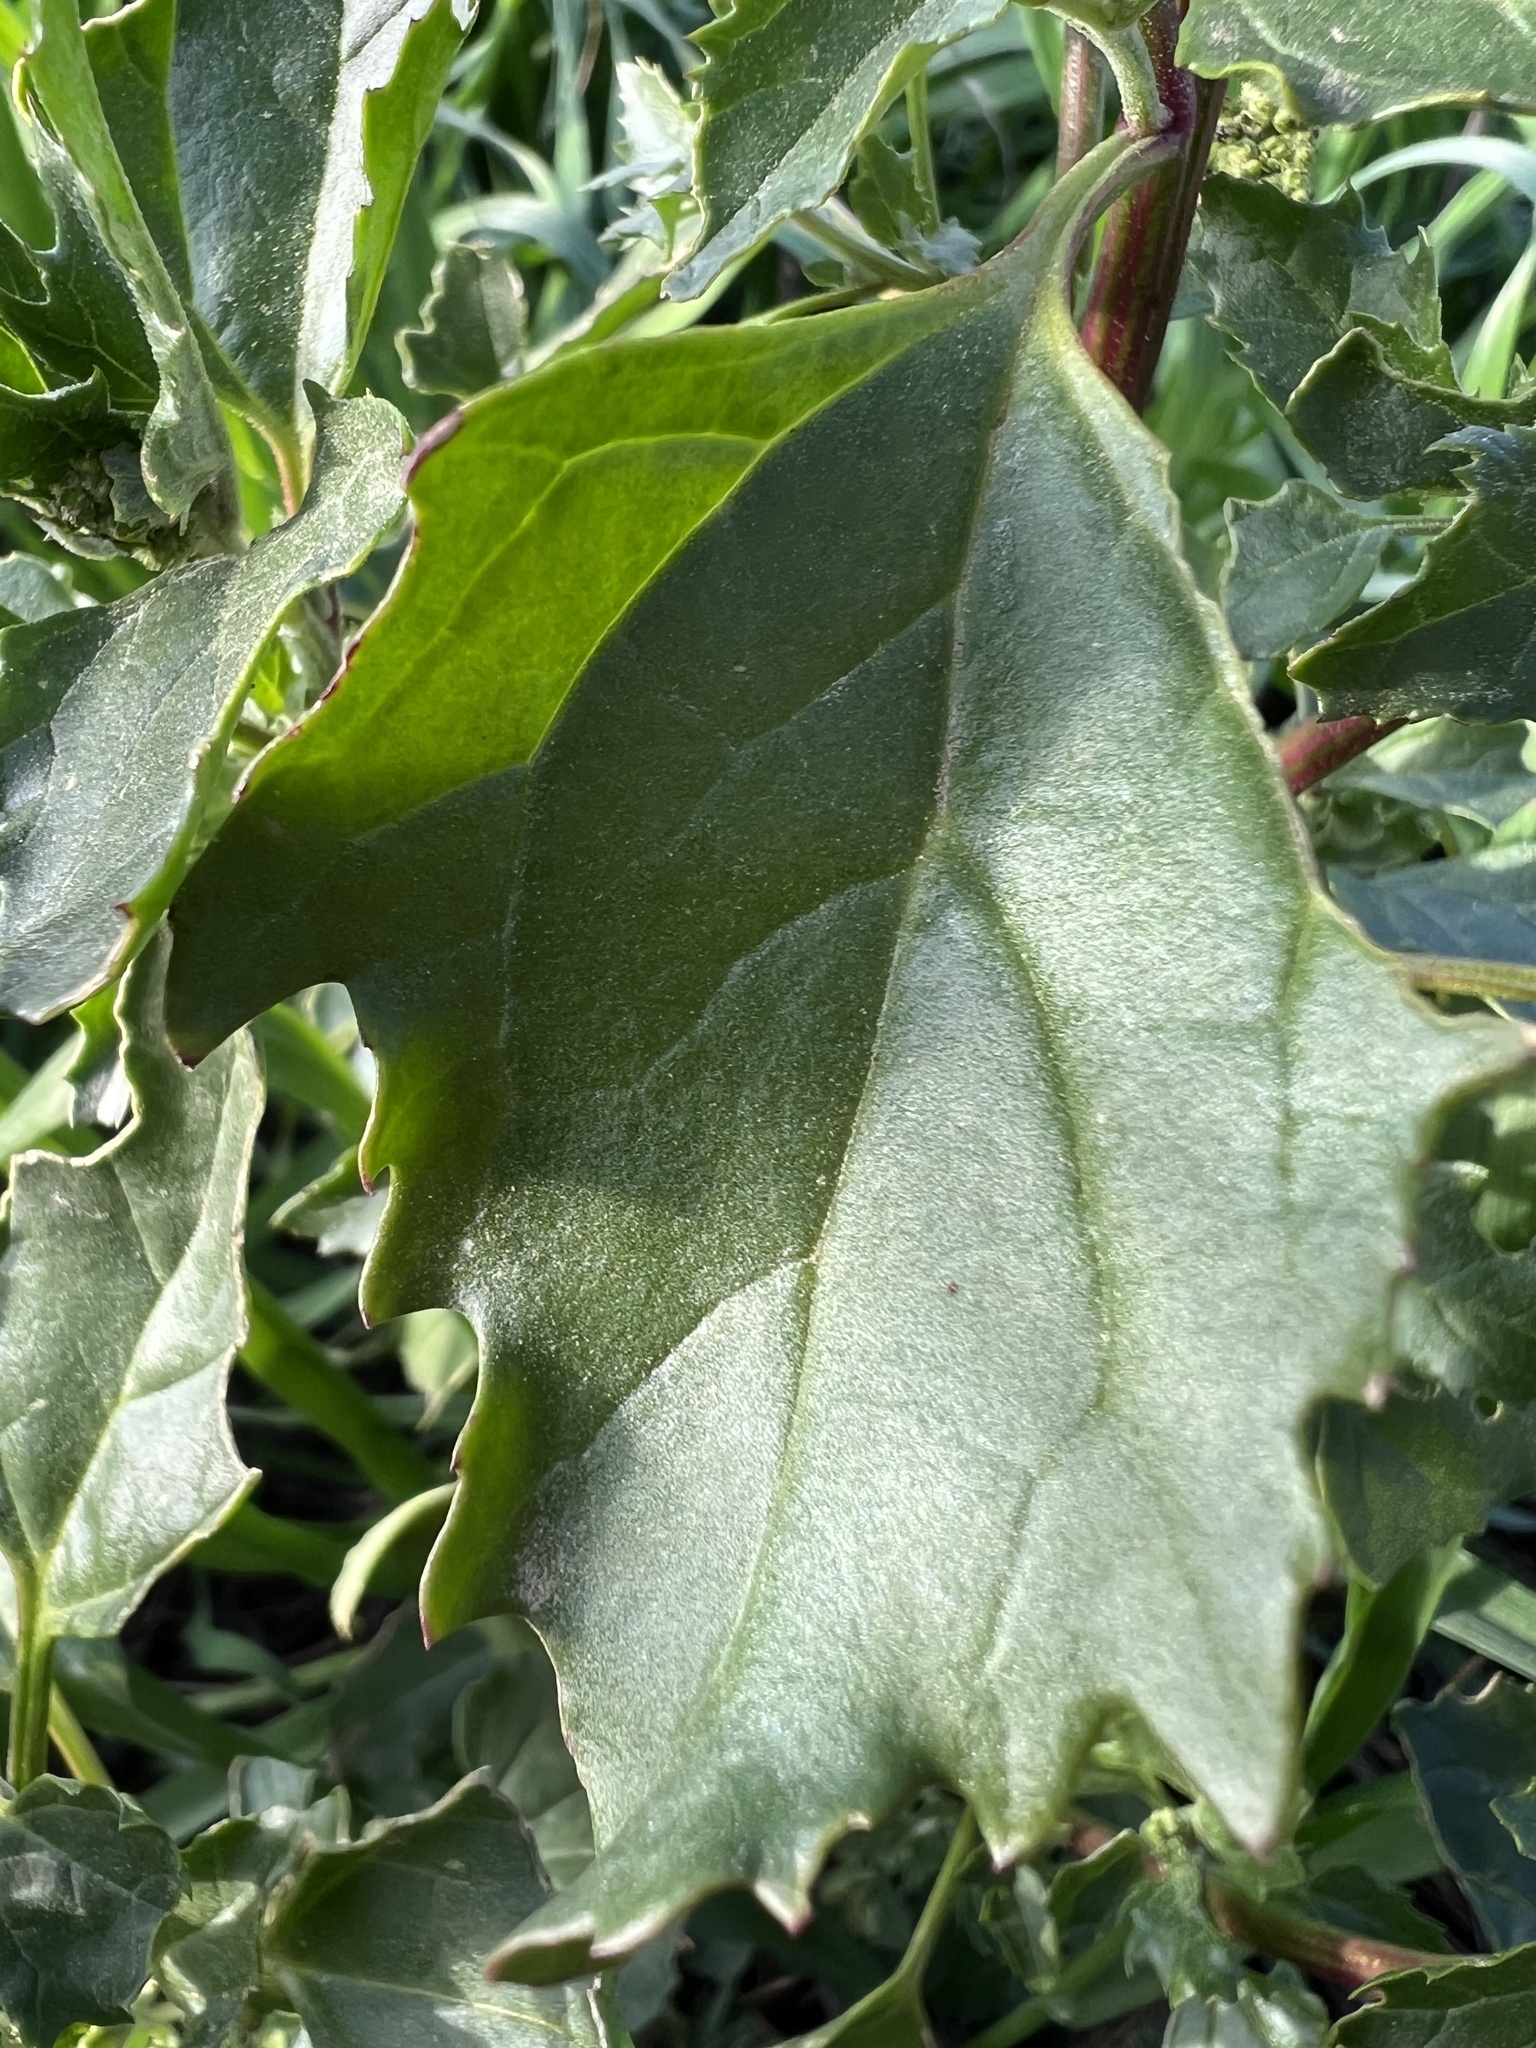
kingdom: Plantae
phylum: Tracheophyta
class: Magnoliopsida
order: Caryophyllales
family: Amaranthaceae
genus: Chenopodiastrum
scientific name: Chenopodiastrum murale
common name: Sowbane
